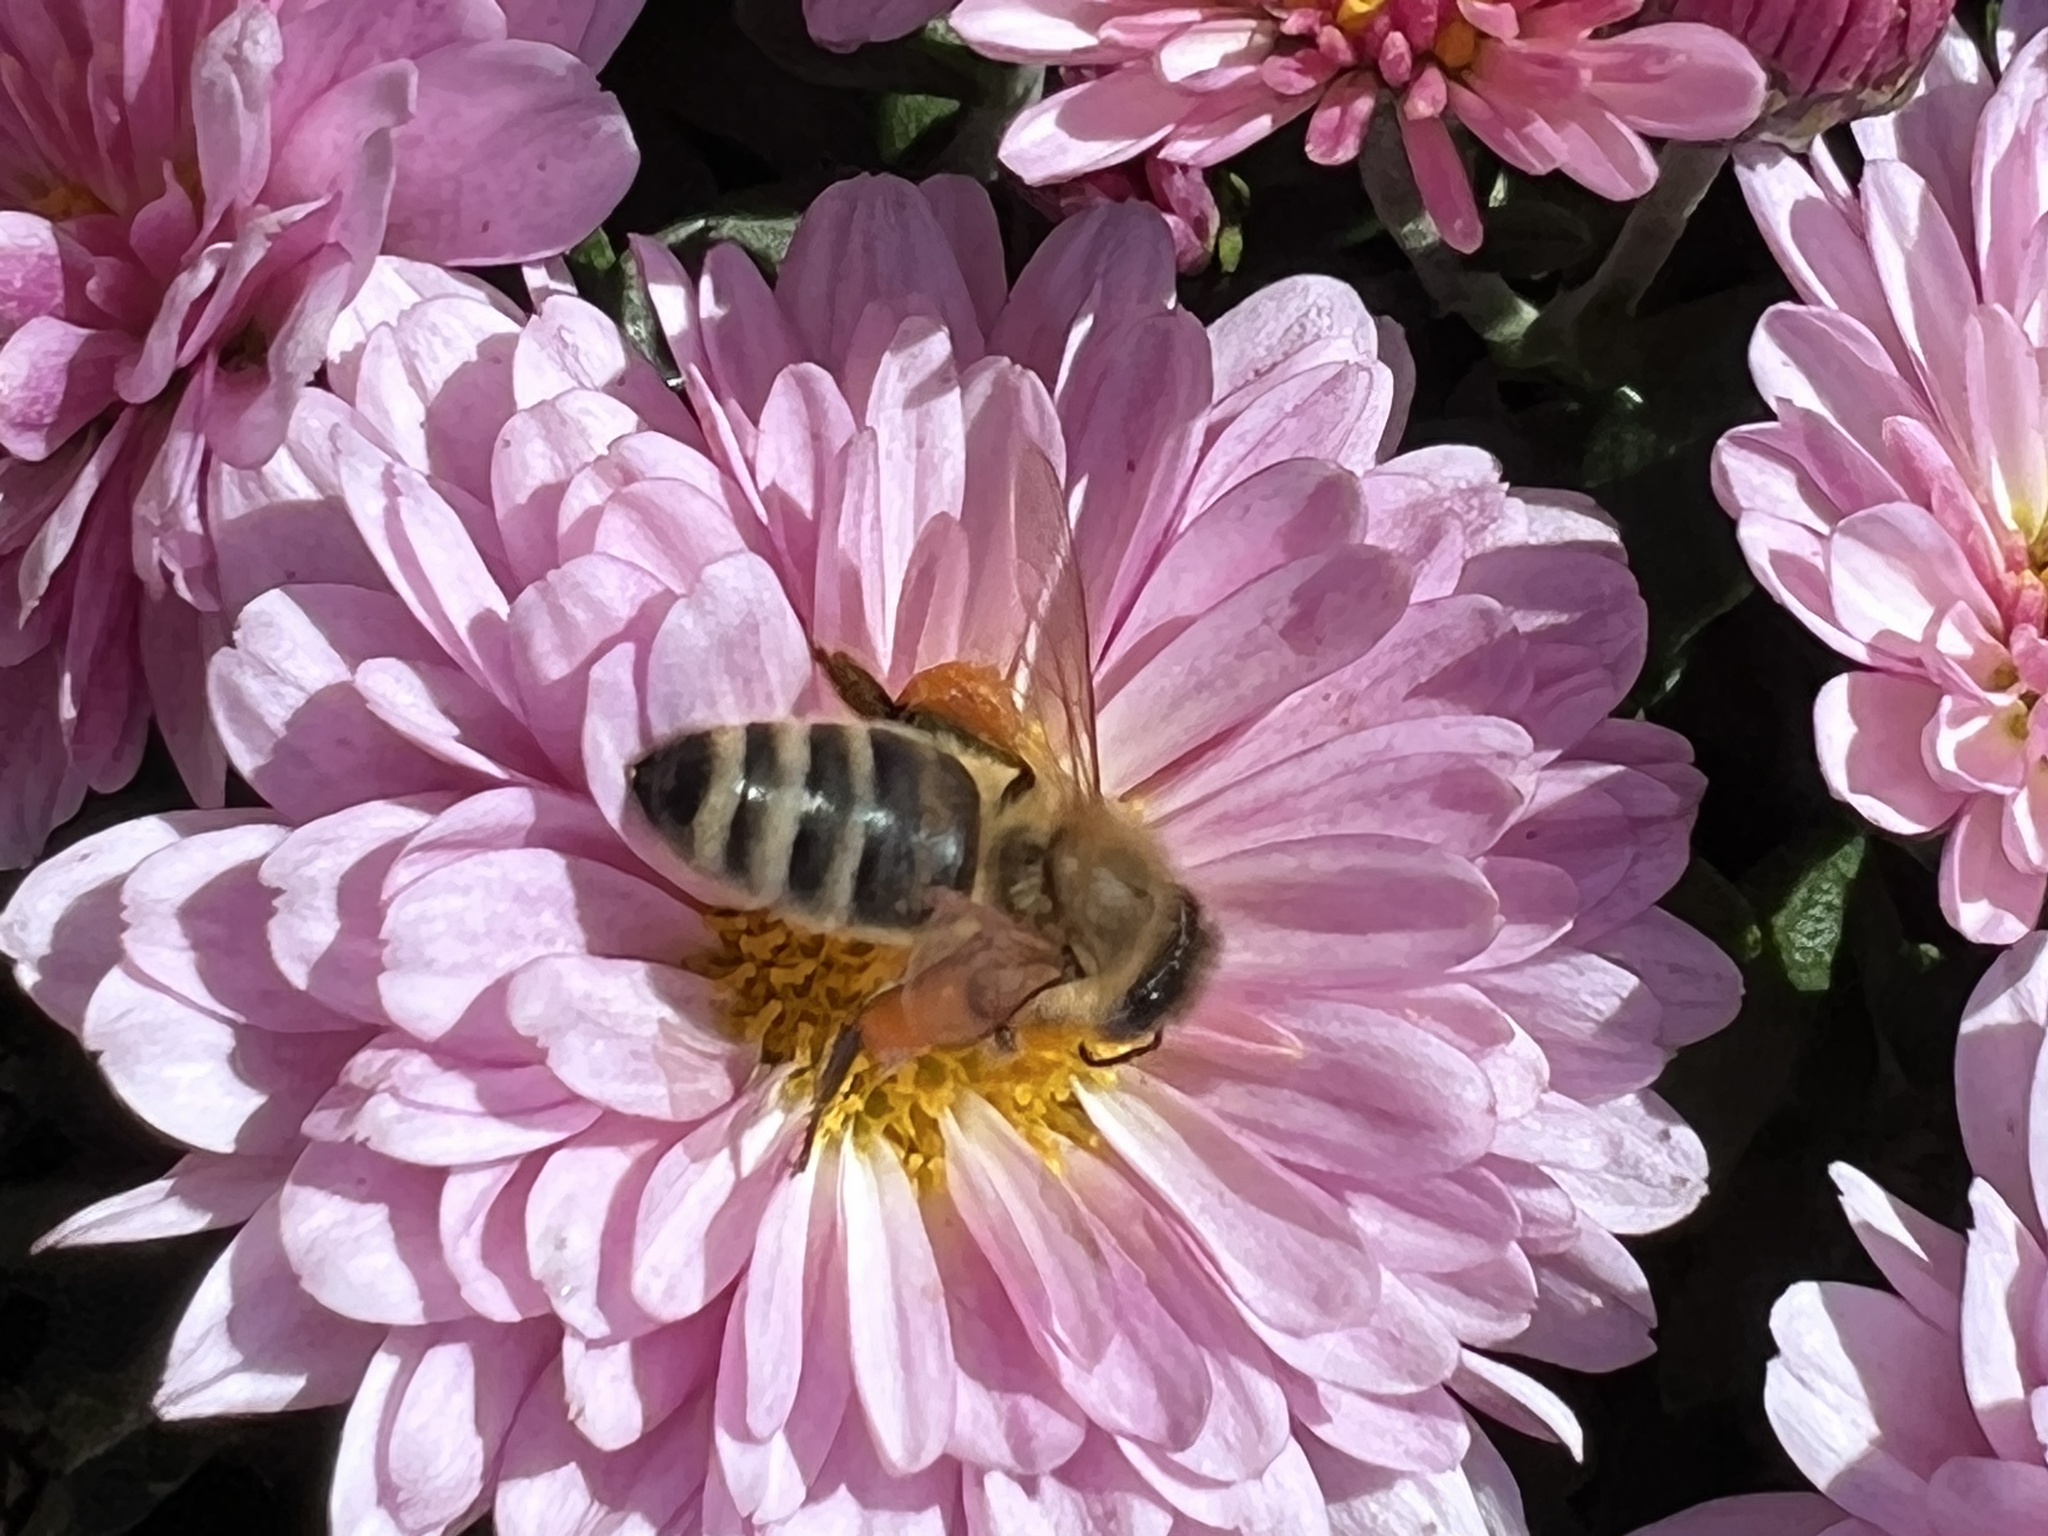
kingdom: Animalia
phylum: Arthropoda
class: Insecta
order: Hymenoptera
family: Apidae
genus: Apis
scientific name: Apis mellifera
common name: Honey bee
